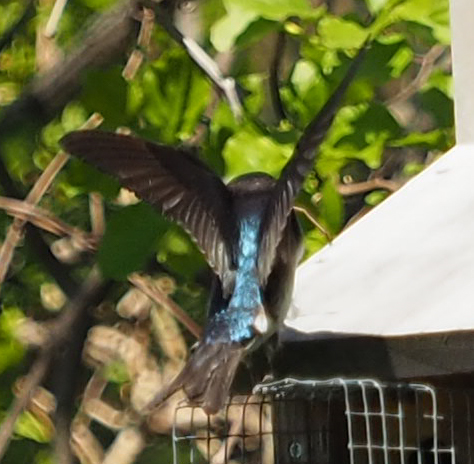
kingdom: Animalia
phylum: Chordata
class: Aves
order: Passeriformes
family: Hirundinidae
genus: Tachycineta
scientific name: Tachycineta bicolor
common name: Tree swallow
